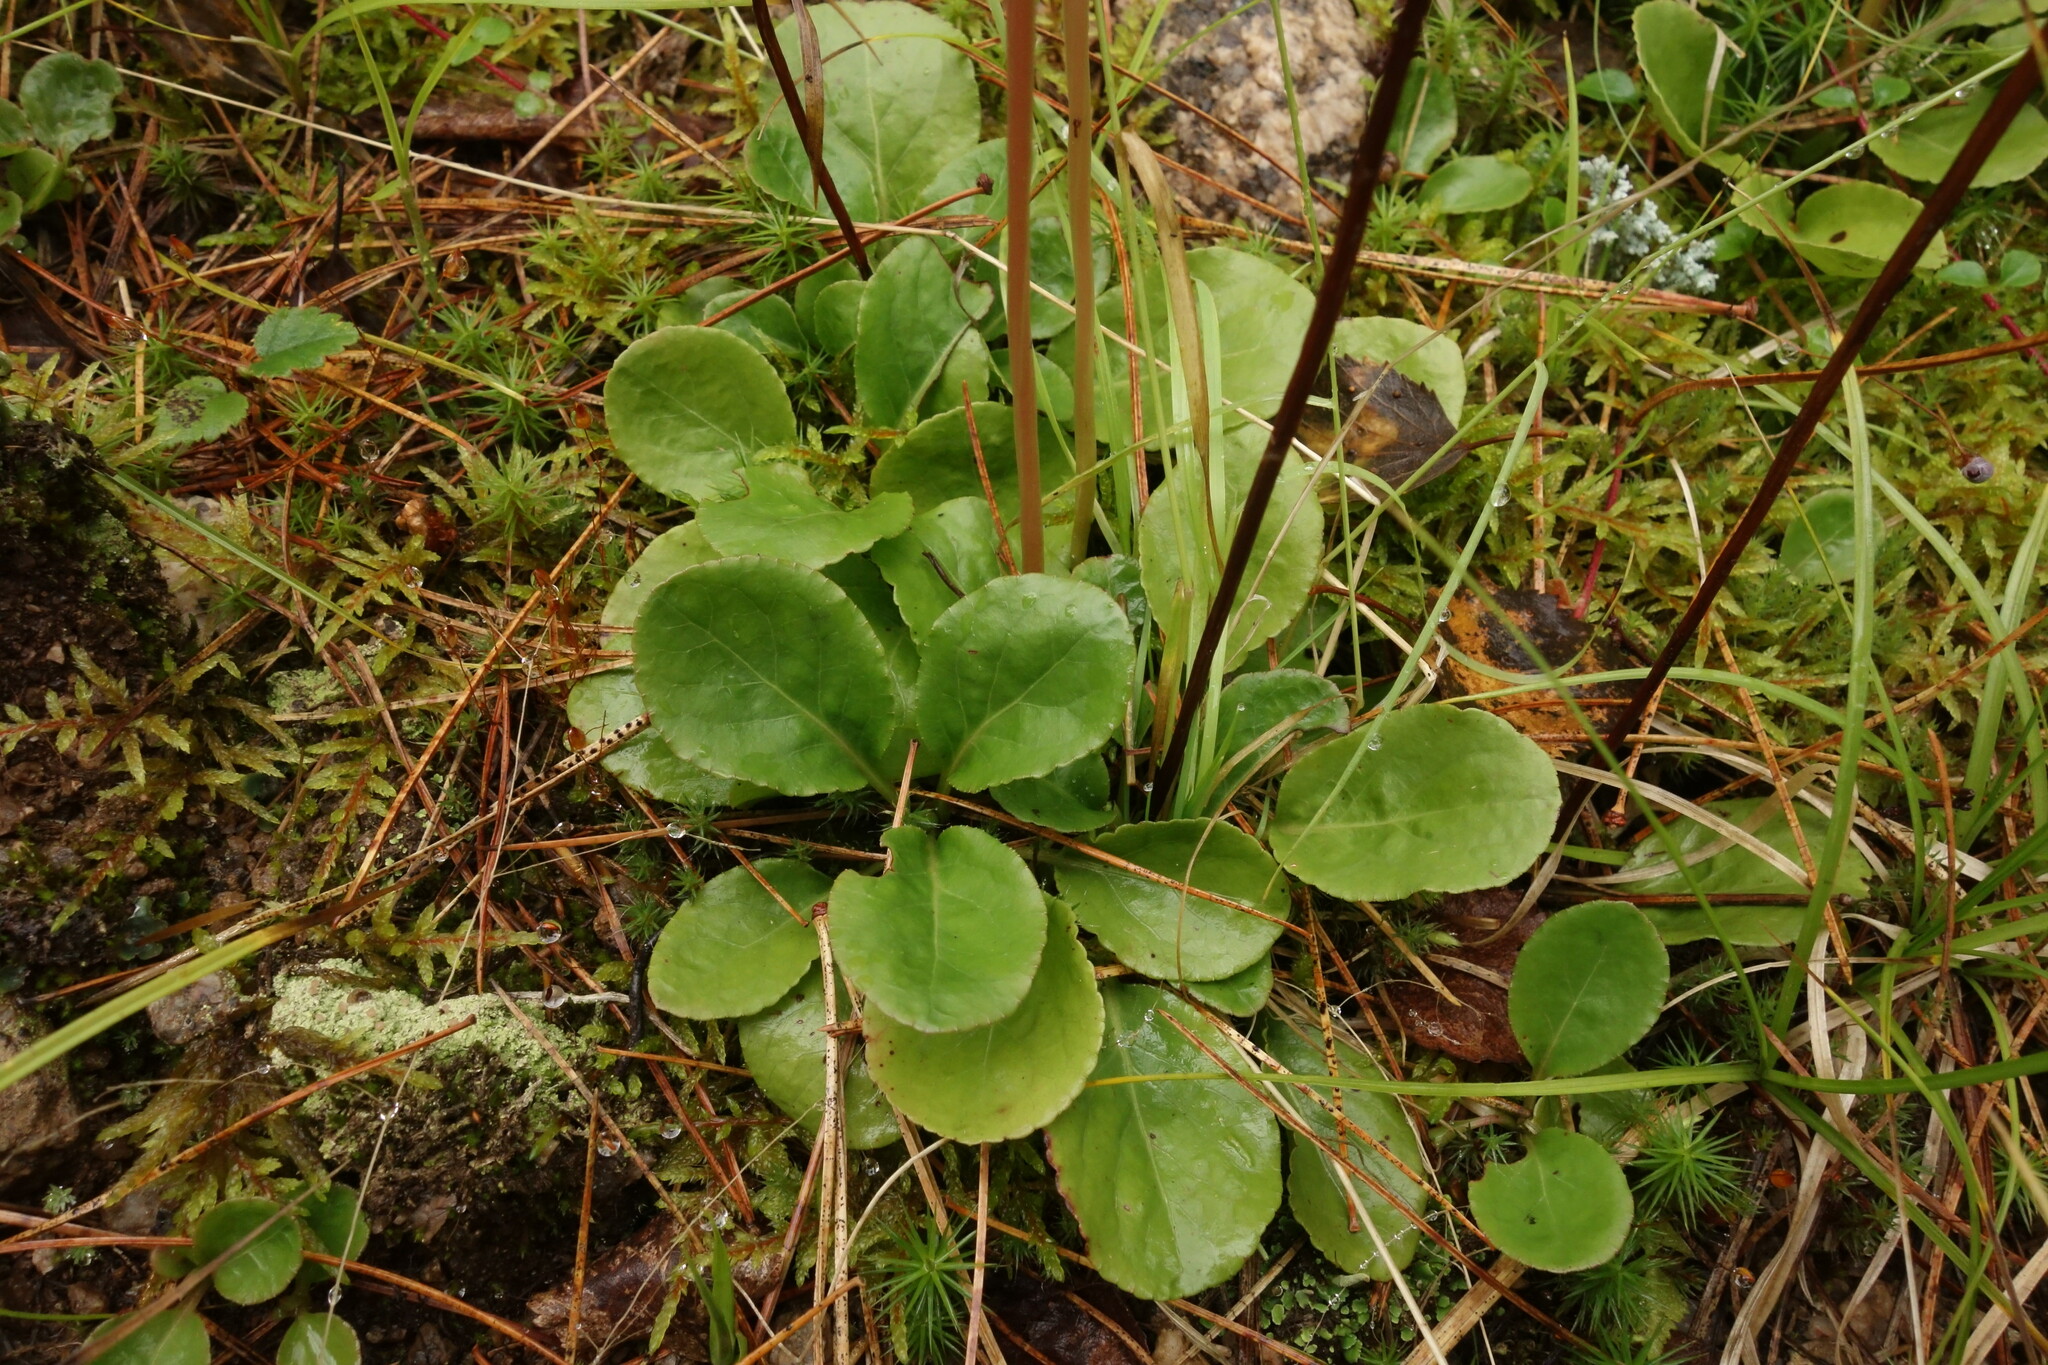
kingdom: Plantae
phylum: Tracheophyta
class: Magnoliopsida
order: Ericales
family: Ericaceae
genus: Pyrola
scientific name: Pyrola minor
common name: Common wintergreen
